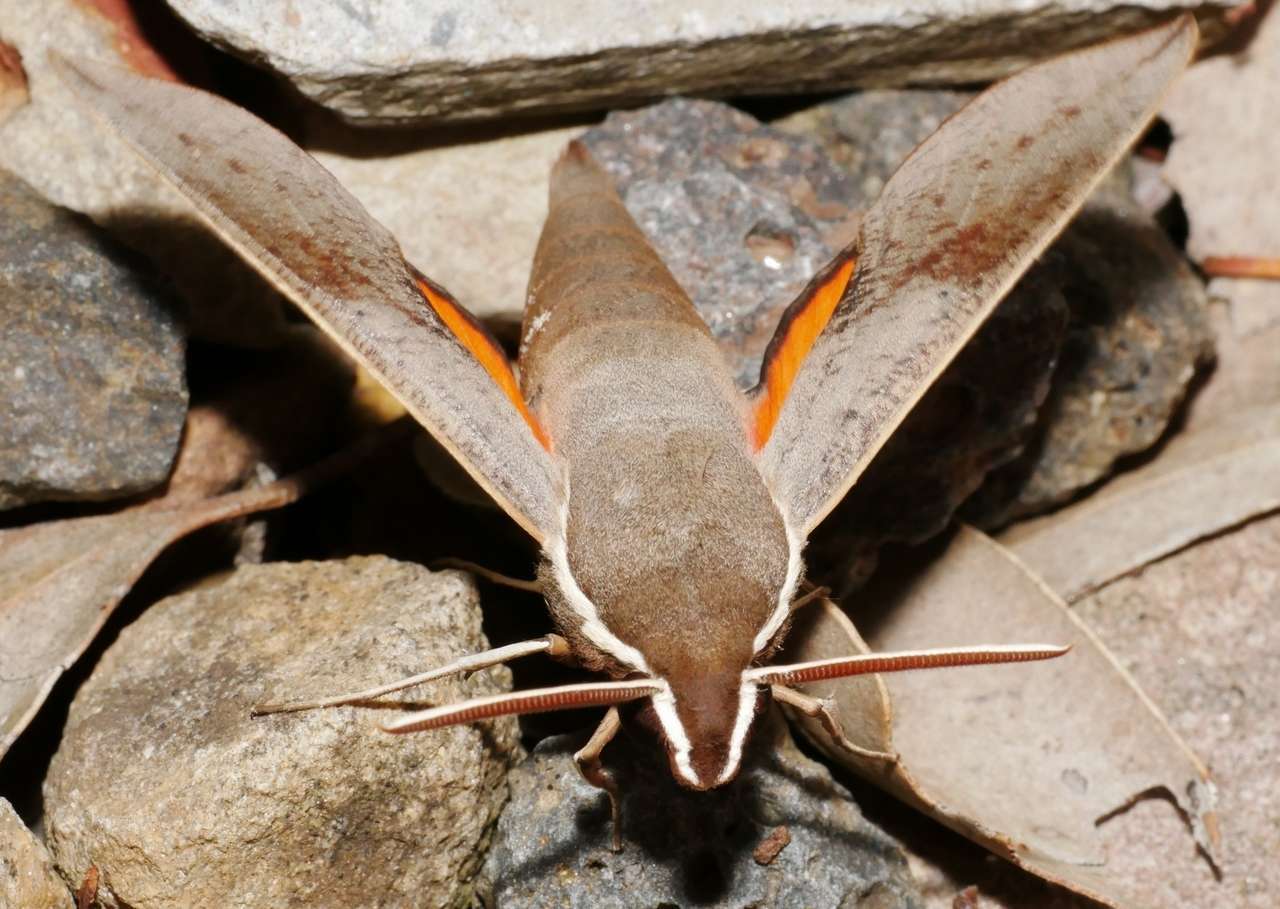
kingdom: Animalia
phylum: Arthropoda
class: Insecta
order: Lepidoptera
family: Sphingidae
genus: Hippotion
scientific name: Hippotion scrofa
